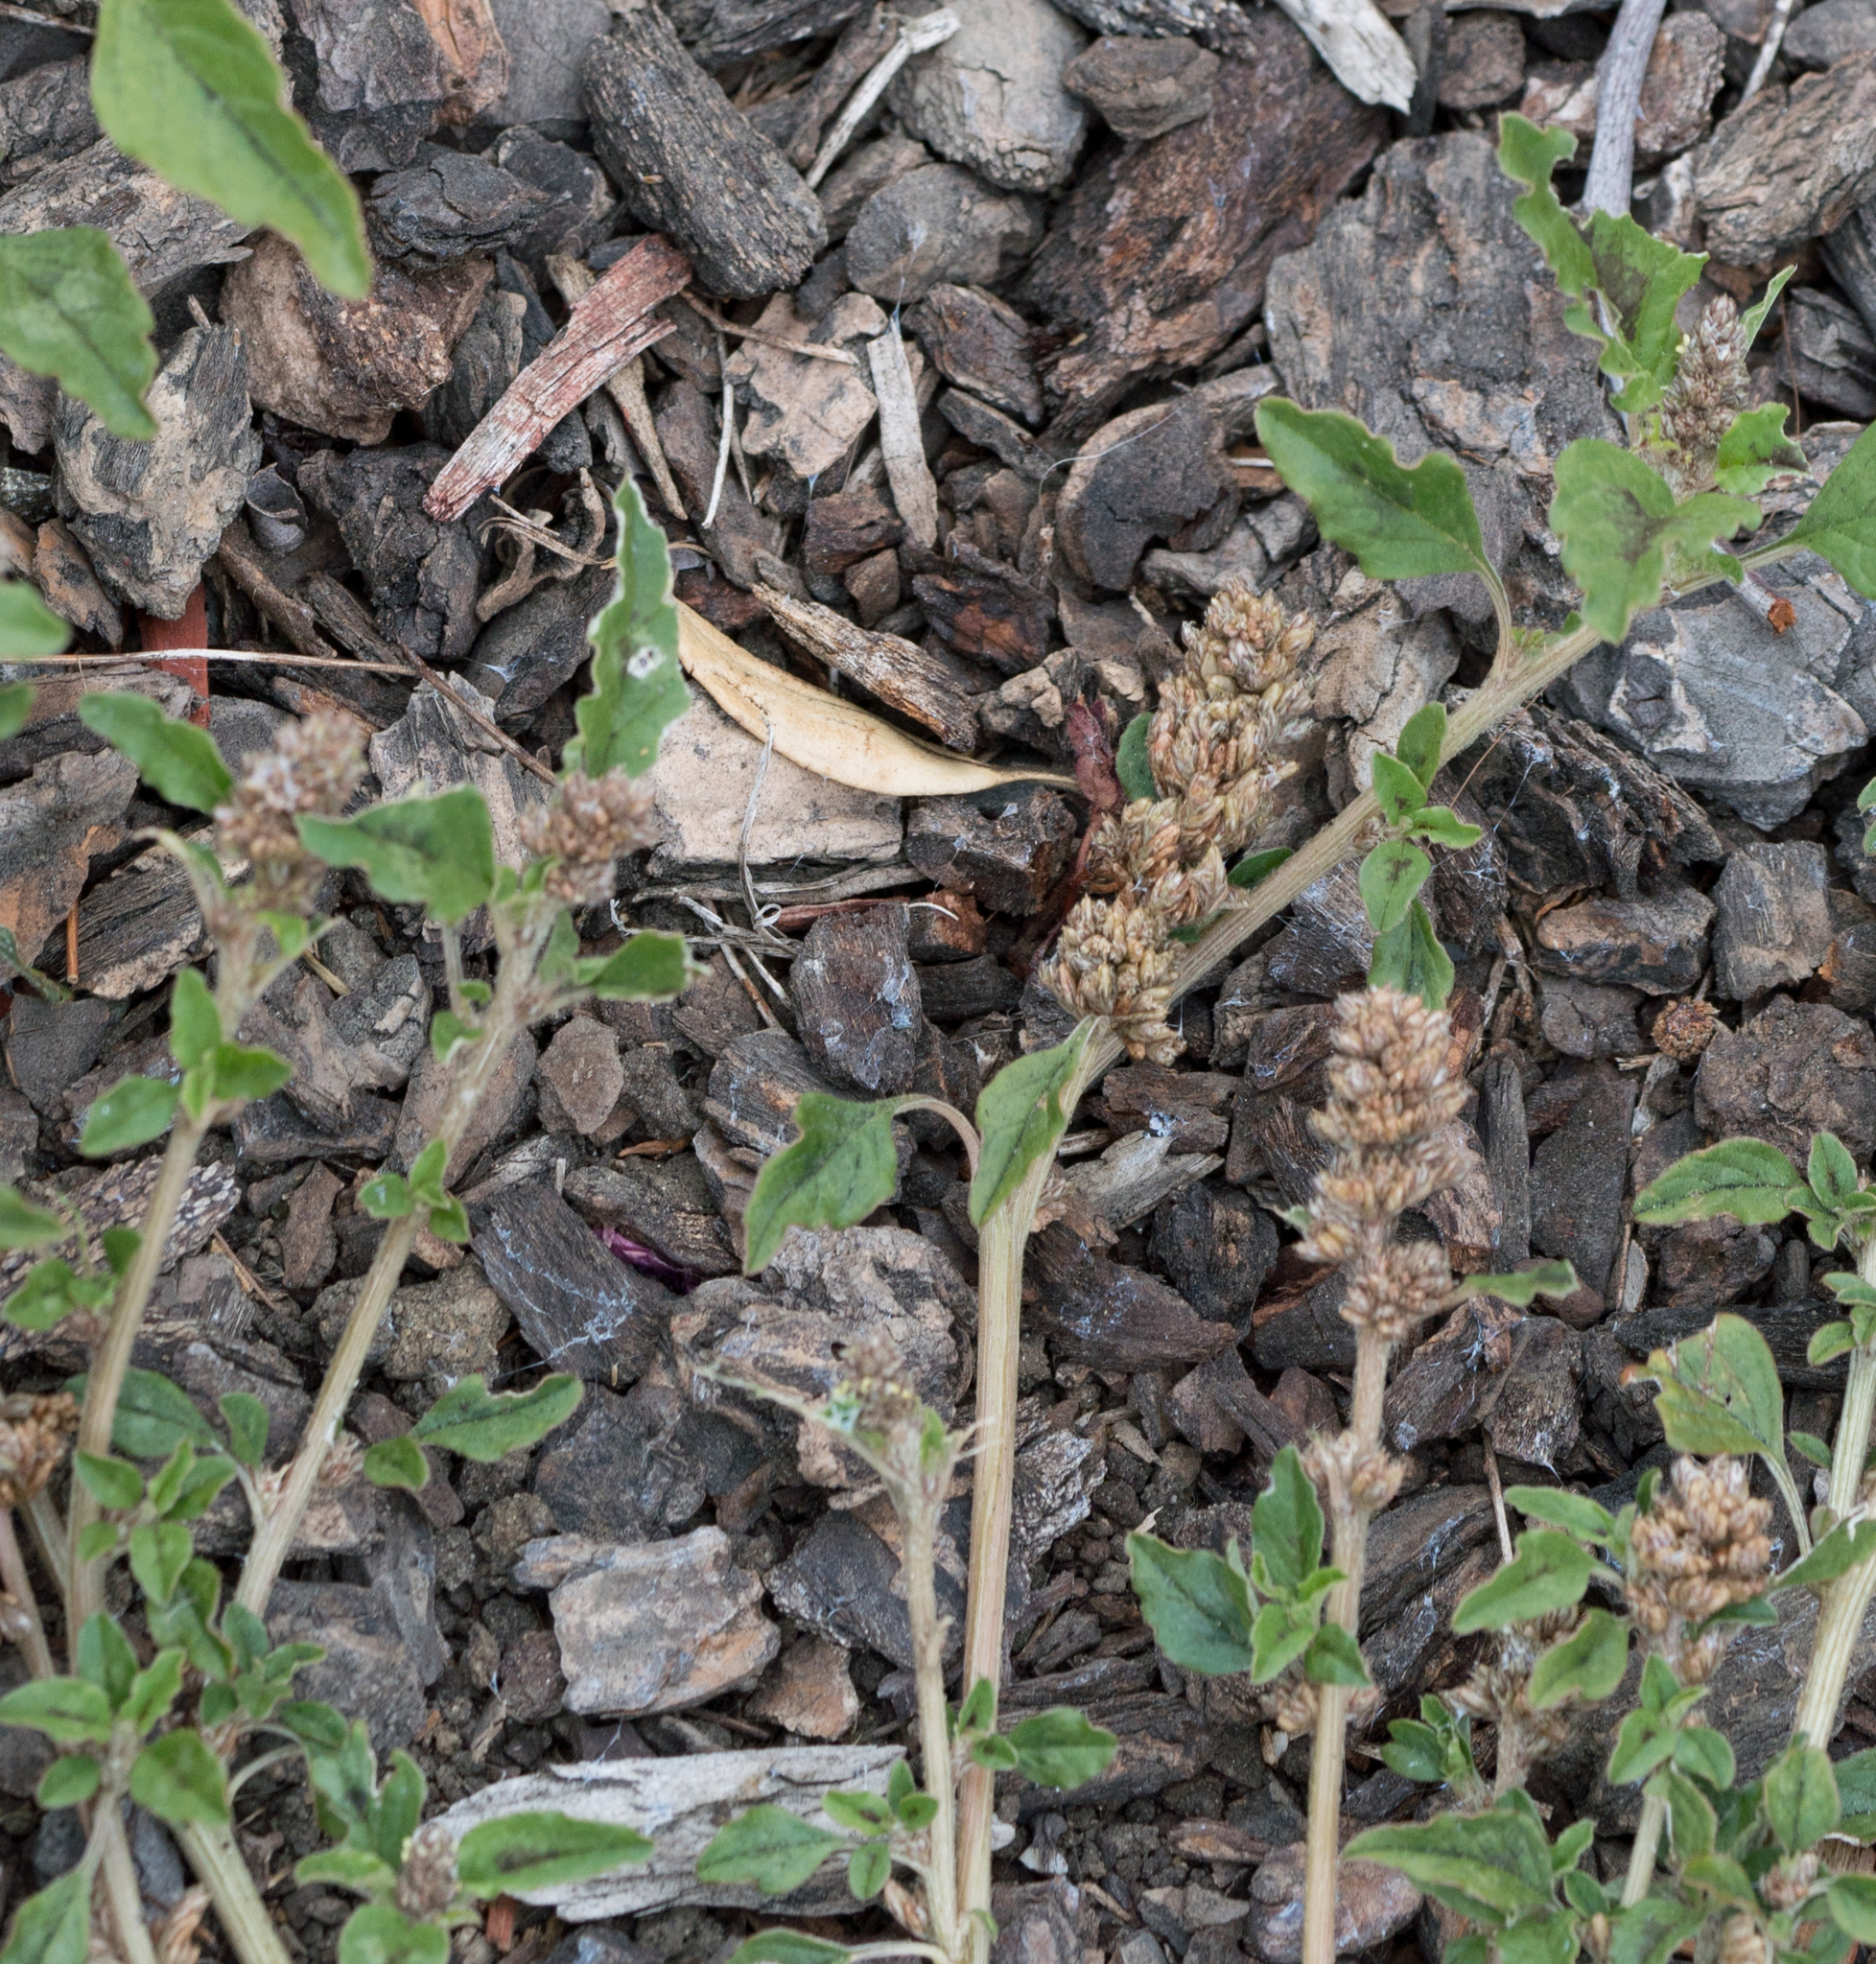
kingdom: Plantae
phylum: Tracheophyta
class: Magnoliopsida
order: Caryophyllales
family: Amaranthaceae
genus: Amaranthus
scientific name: Amaranthus deflexus
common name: Perennial pigweed
